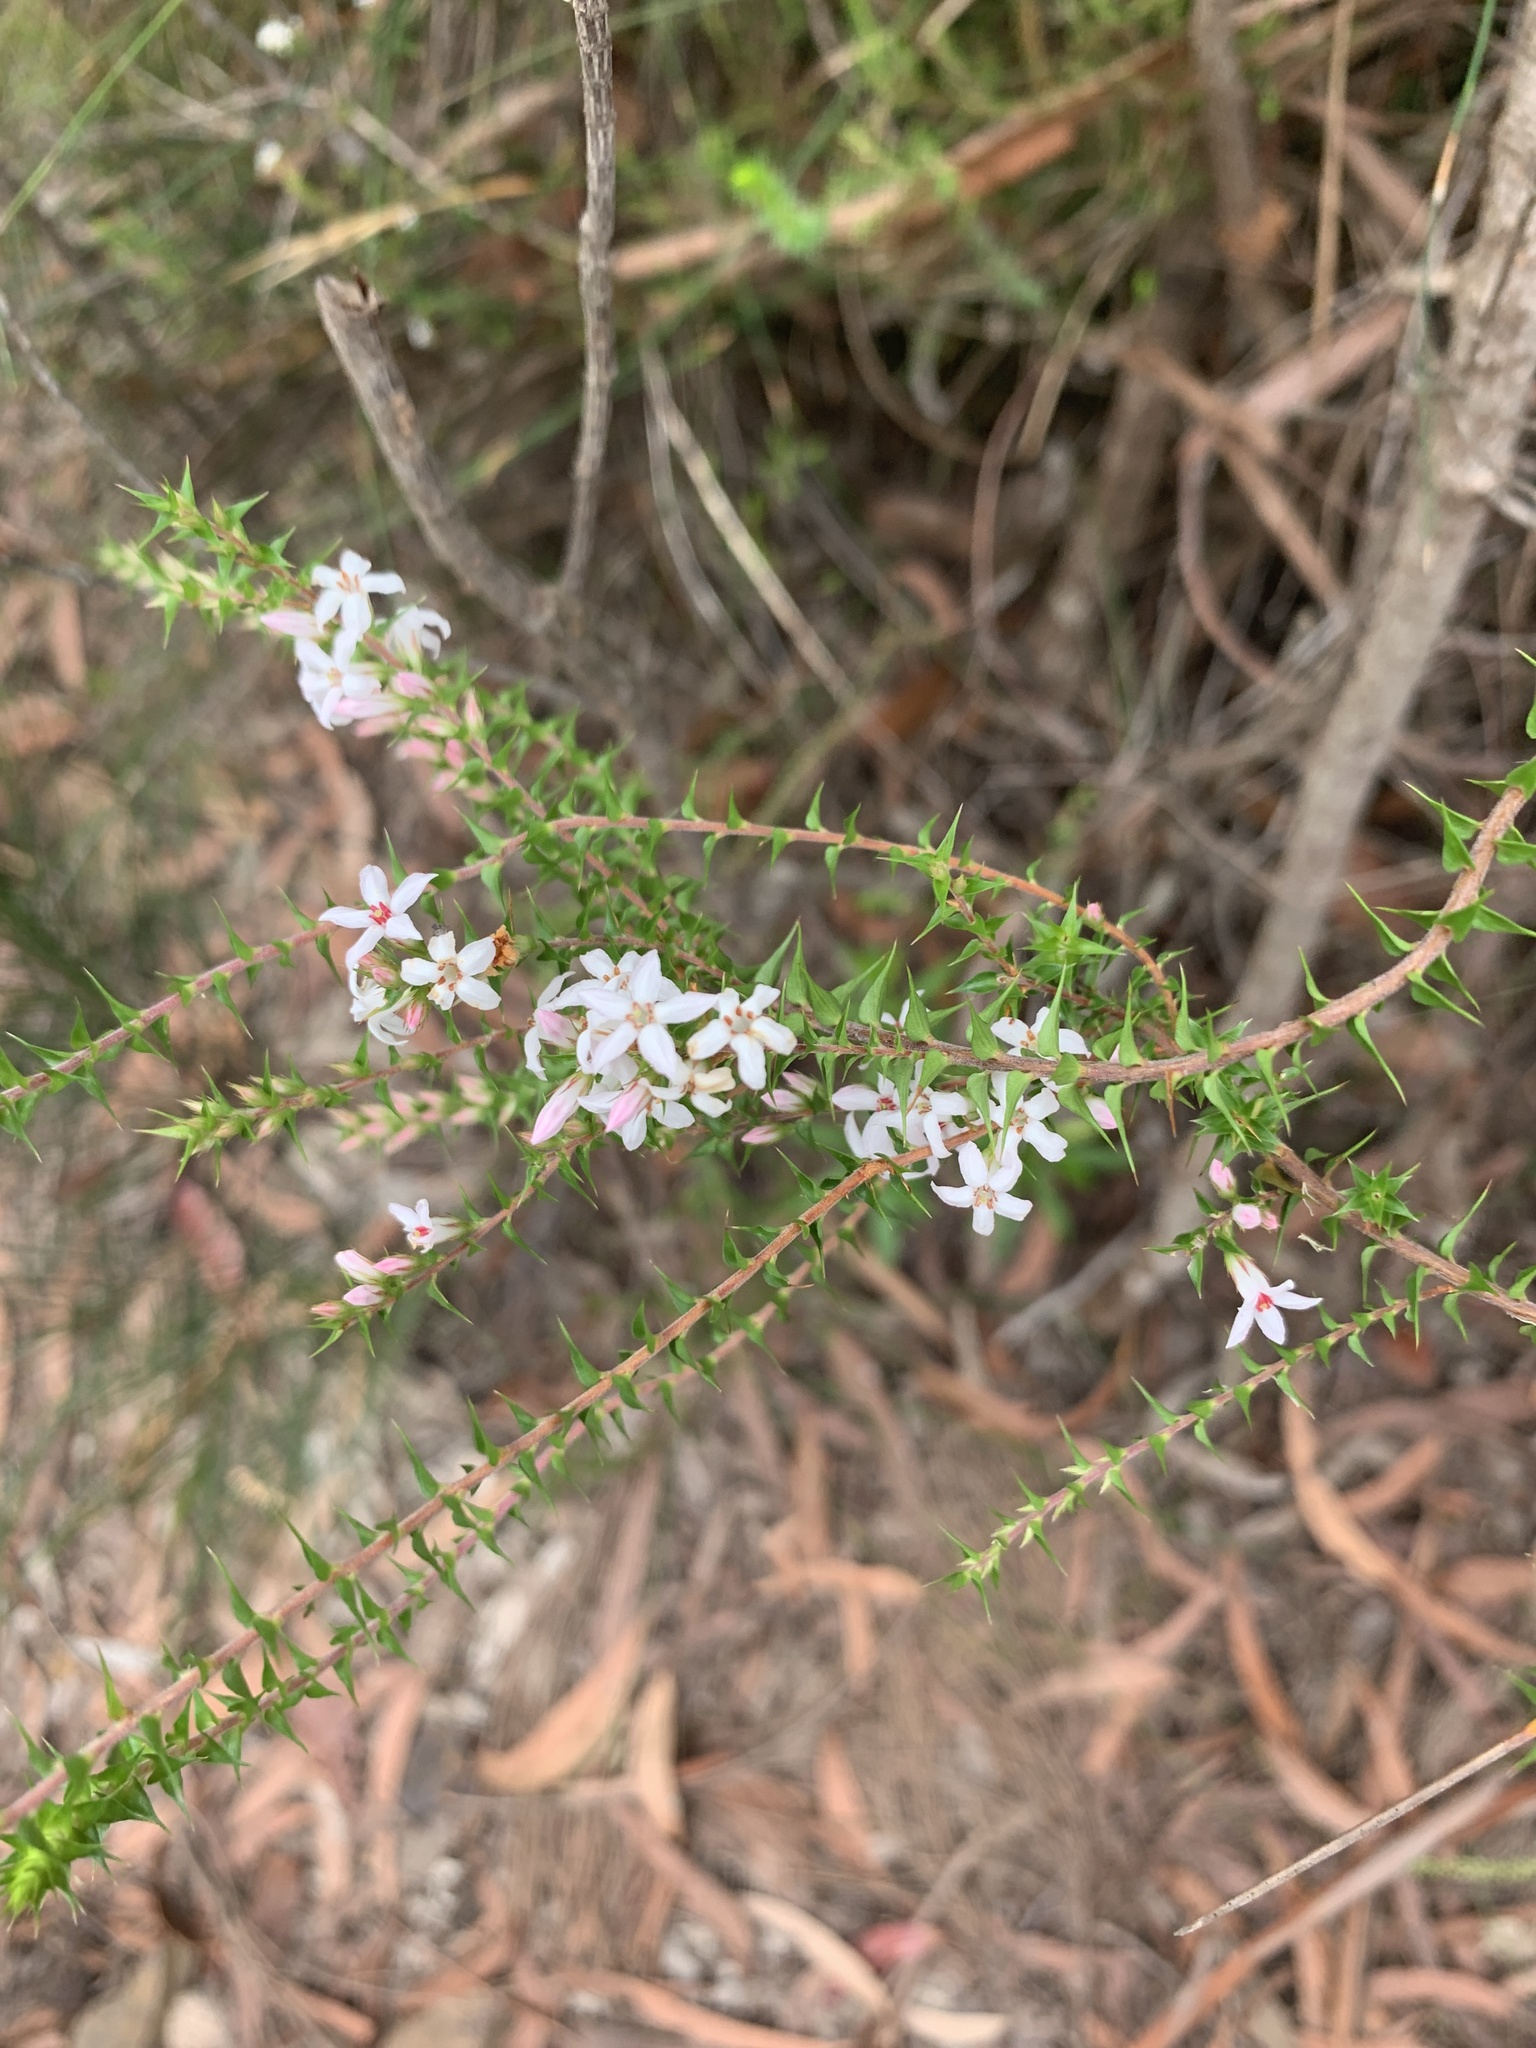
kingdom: Plantae
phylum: Tracheophyta
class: Magnoliopsida
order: Ericales
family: Ericaceae
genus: Epacris
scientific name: Epacris pulchella
